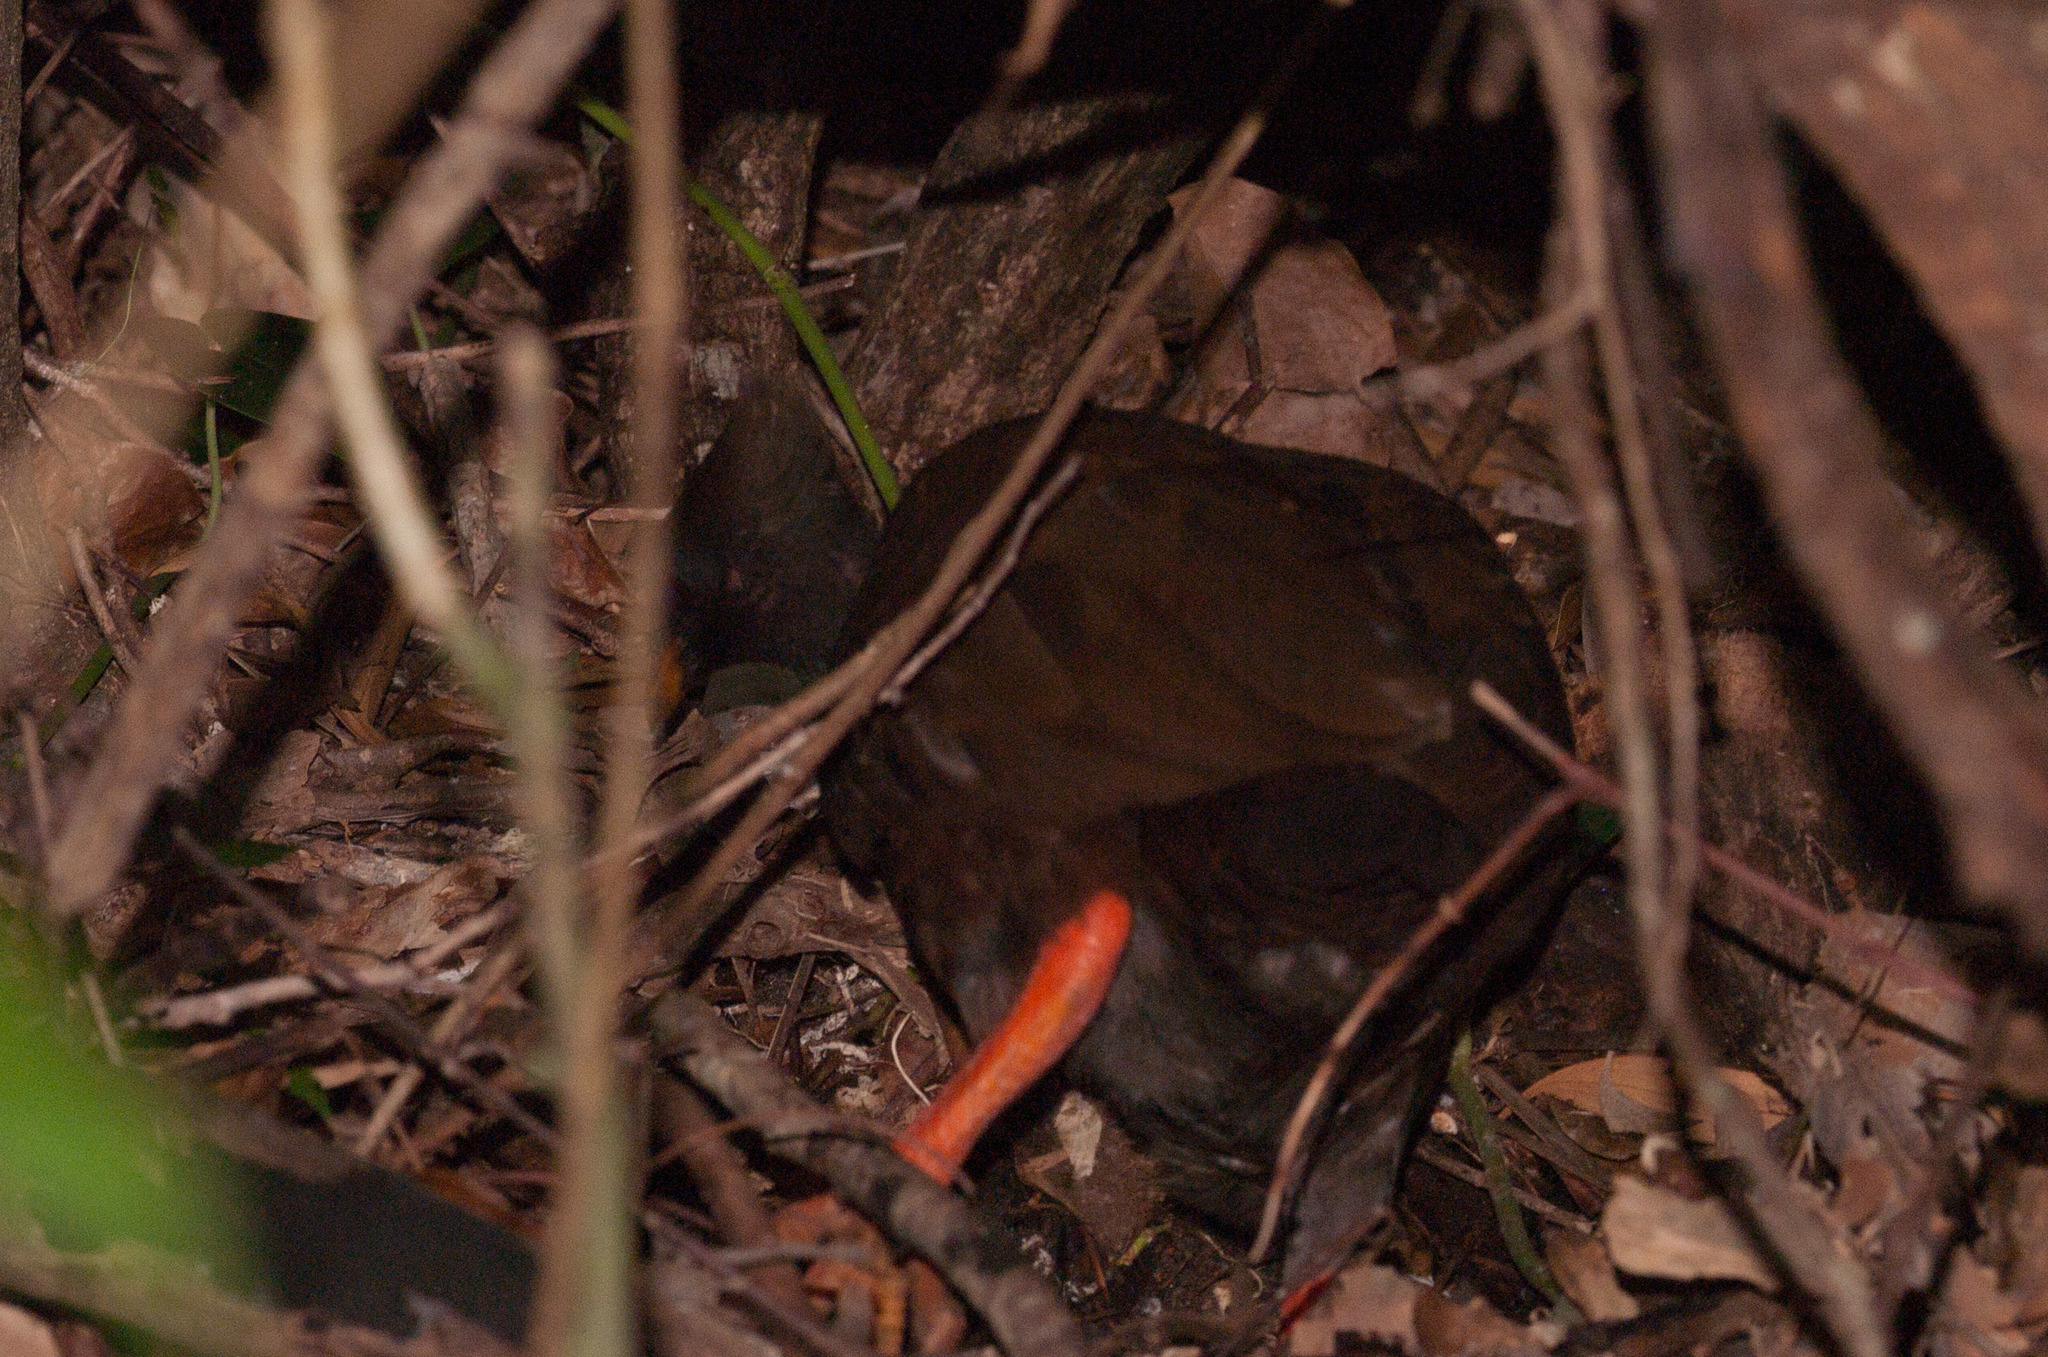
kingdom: Animalia
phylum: Chordata
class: Aves
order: Galliformes
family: Megapodiidae
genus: Megapodius
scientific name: Megapodius reinwardt
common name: Orange-footed scrubfowl
